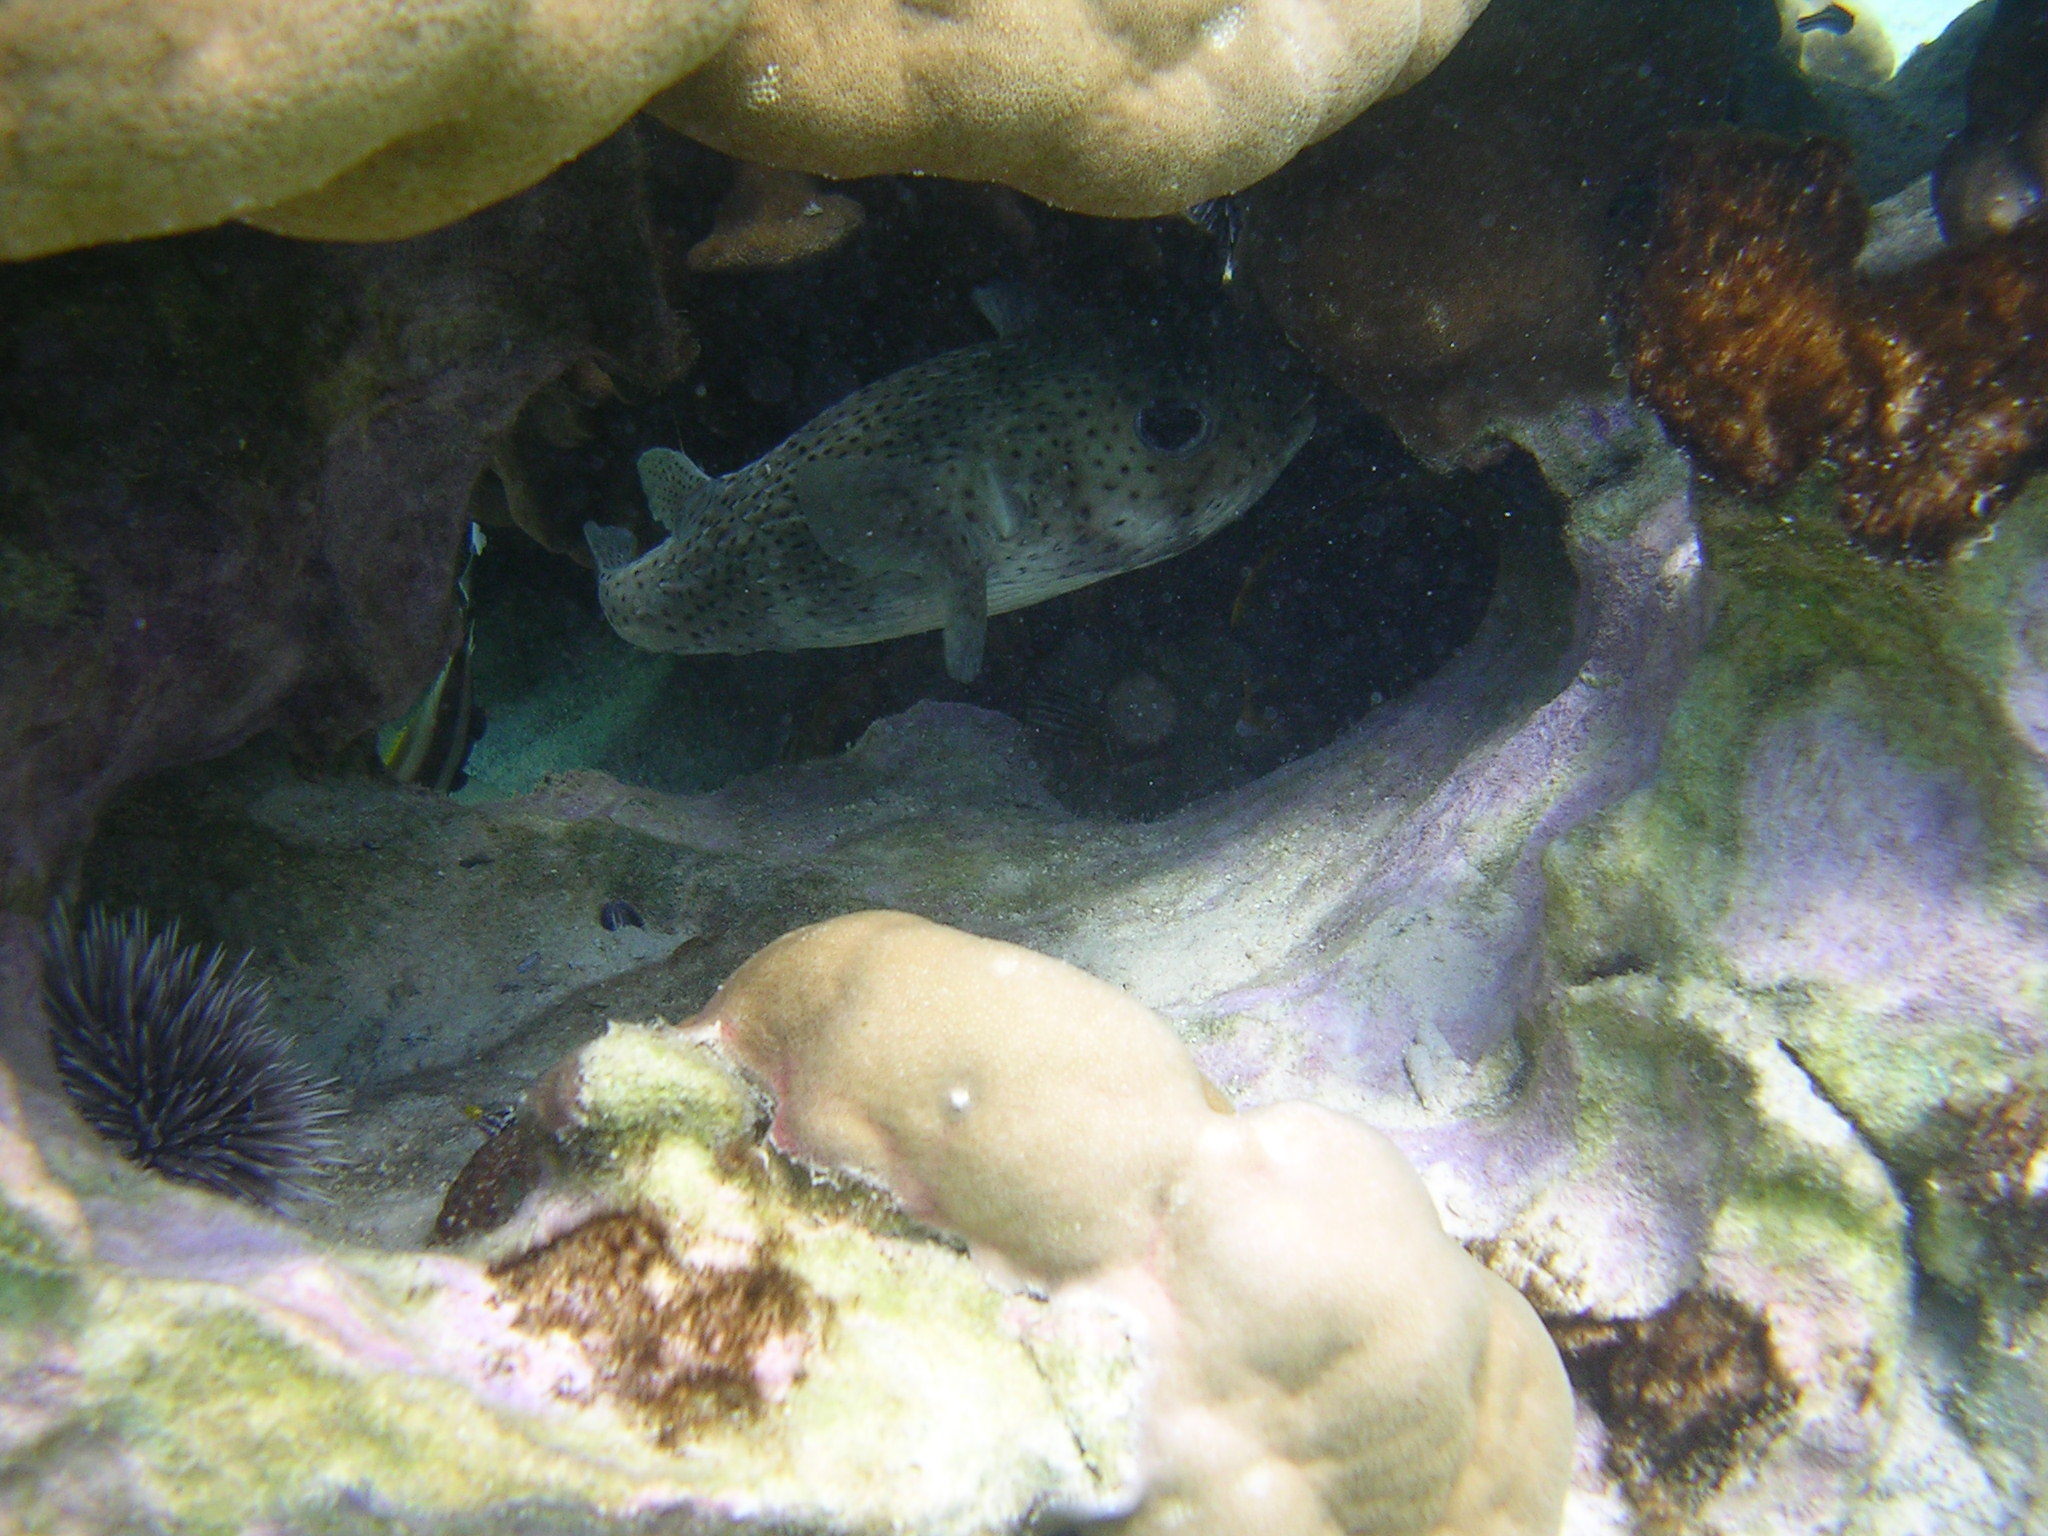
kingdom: Animalia
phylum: Chordata
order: Tetraodontiformes
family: Diodontidae
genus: Diodon
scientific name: Diodon hystrix
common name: Giant porcupinefish
